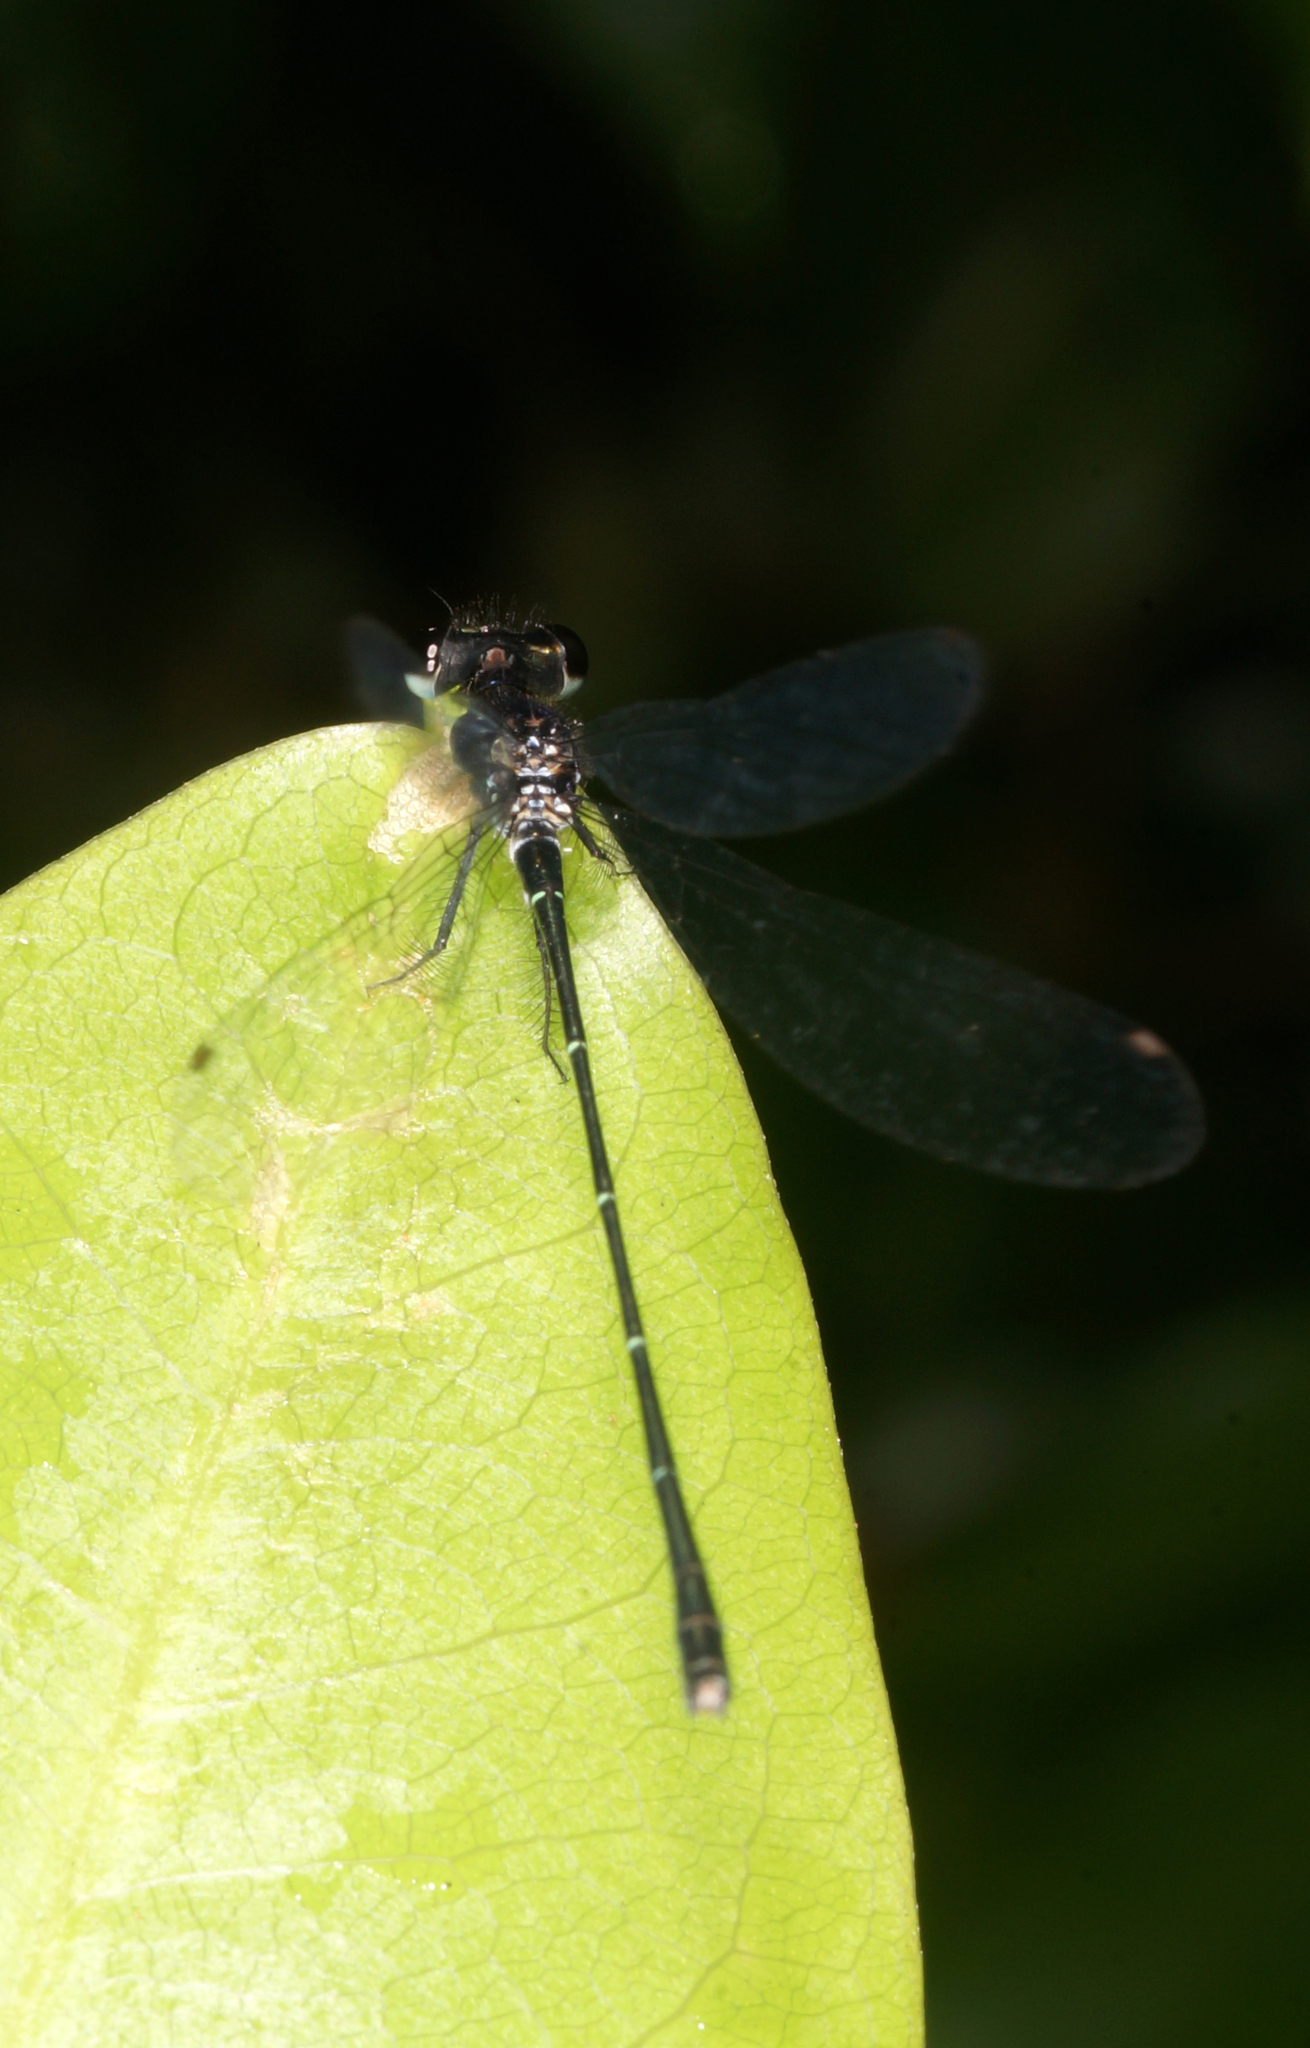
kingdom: Animalia
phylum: Arthropoda
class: Insecta
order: Odonata
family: Platycnemididae
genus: Onychargia
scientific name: Onychargia atrocyana
